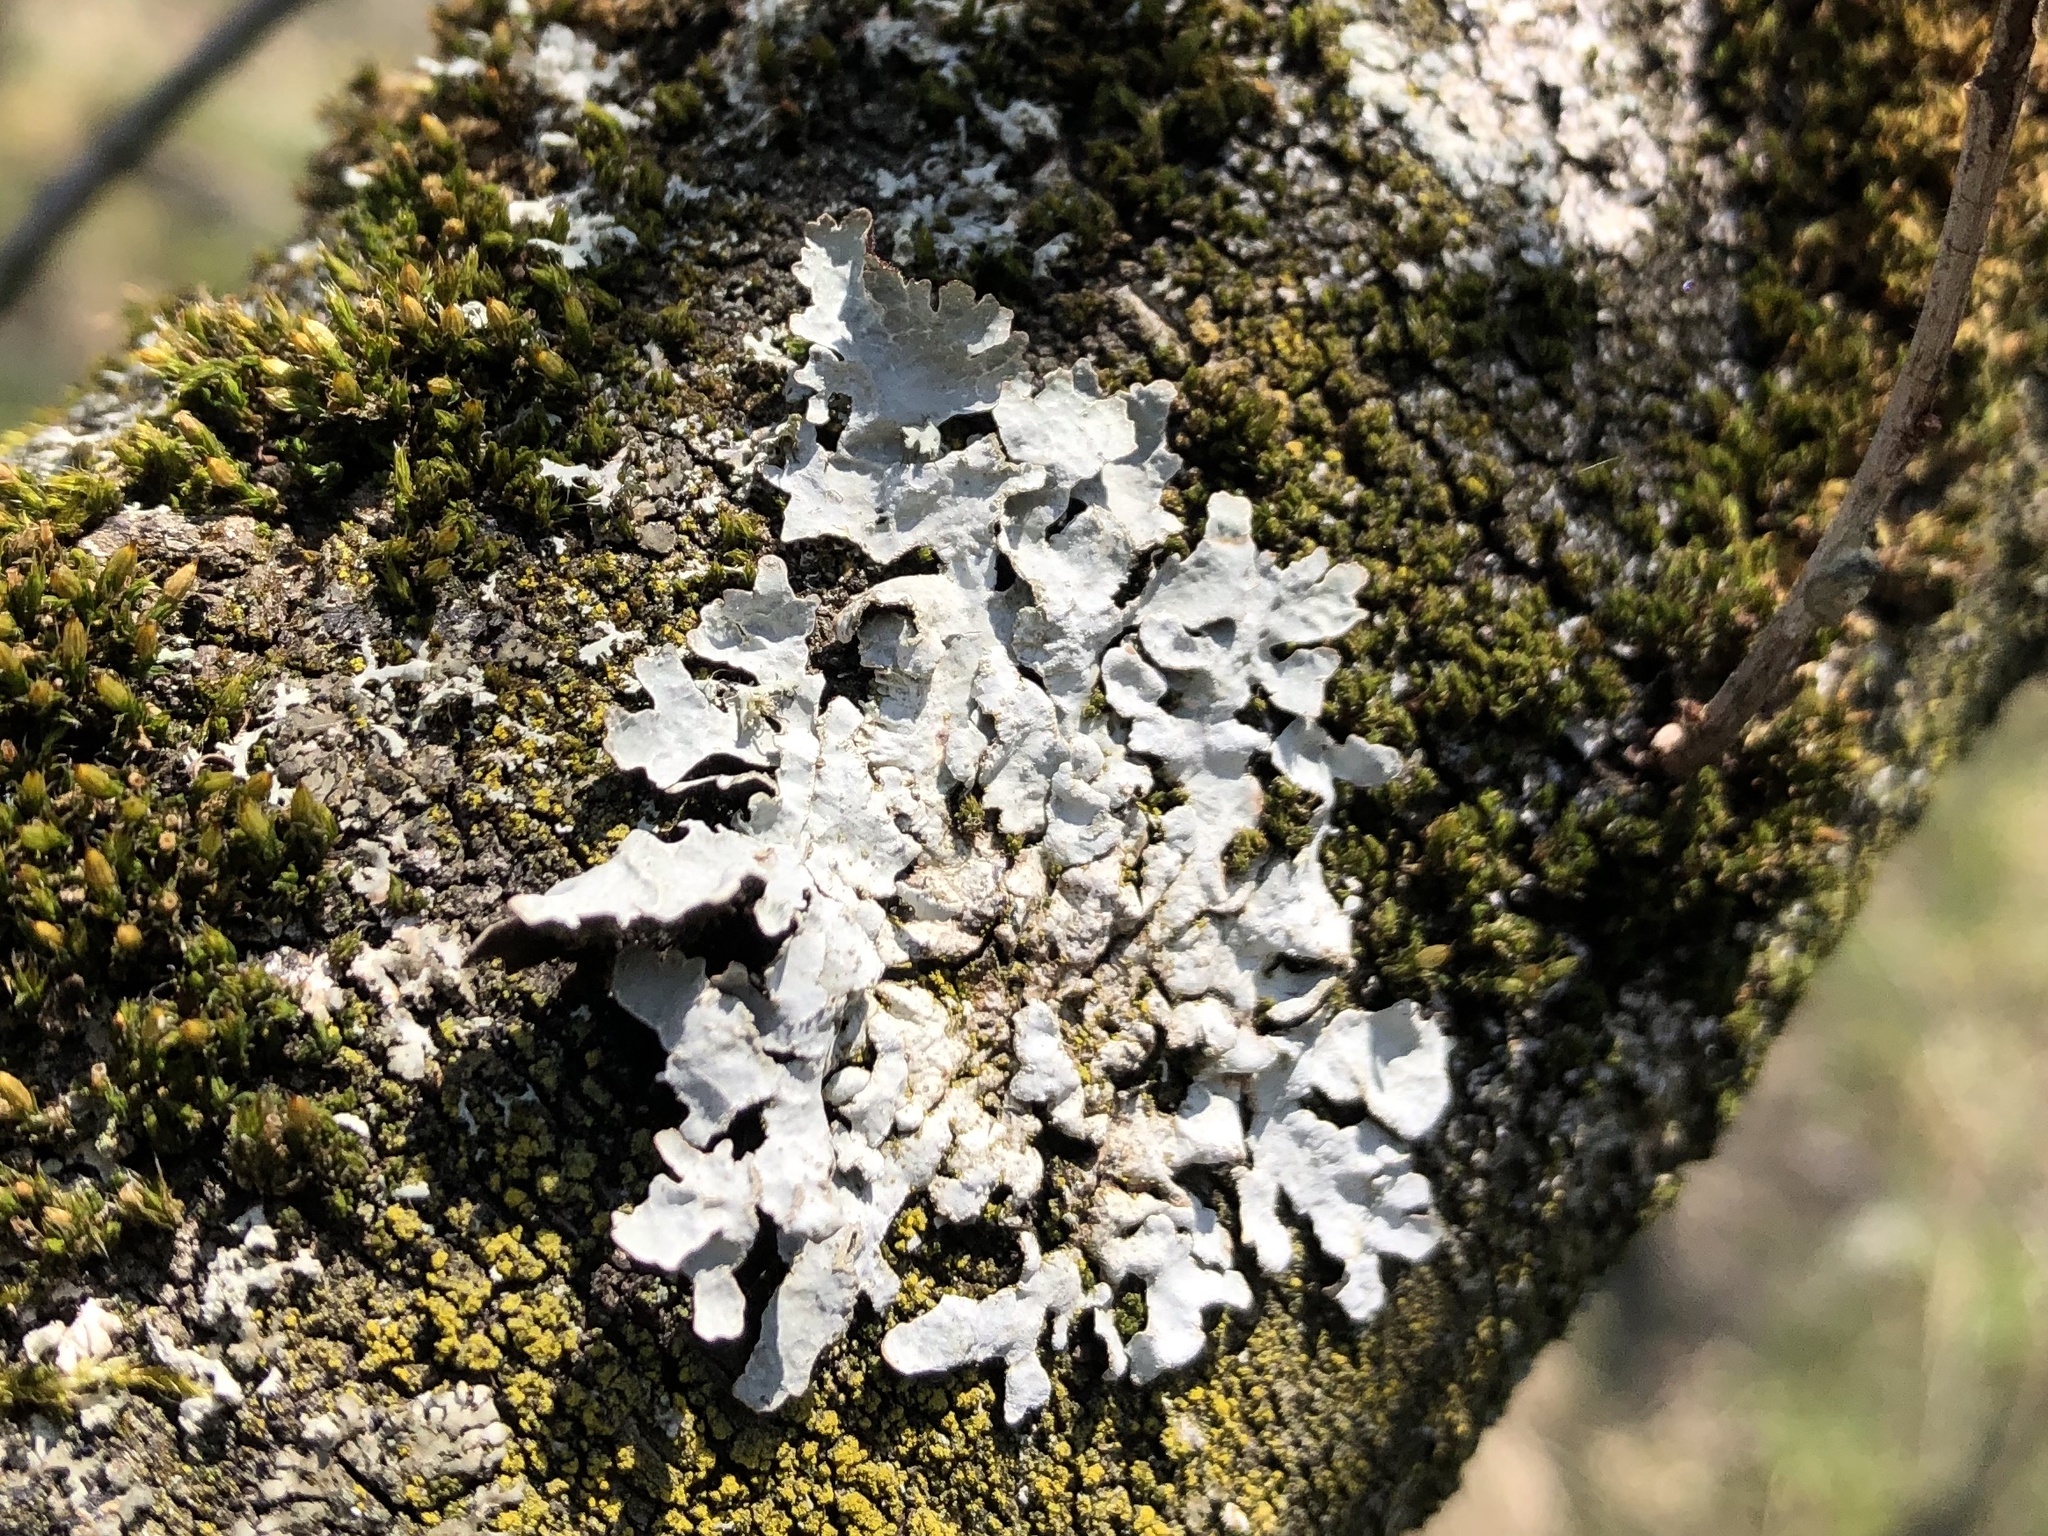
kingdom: Fungi
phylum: Ascomycota
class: Lecanoromycetes
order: Lecanorales
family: Parmeliaceae
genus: Parmelia
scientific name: Parmelia sulcata
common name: Netted shield lichen
